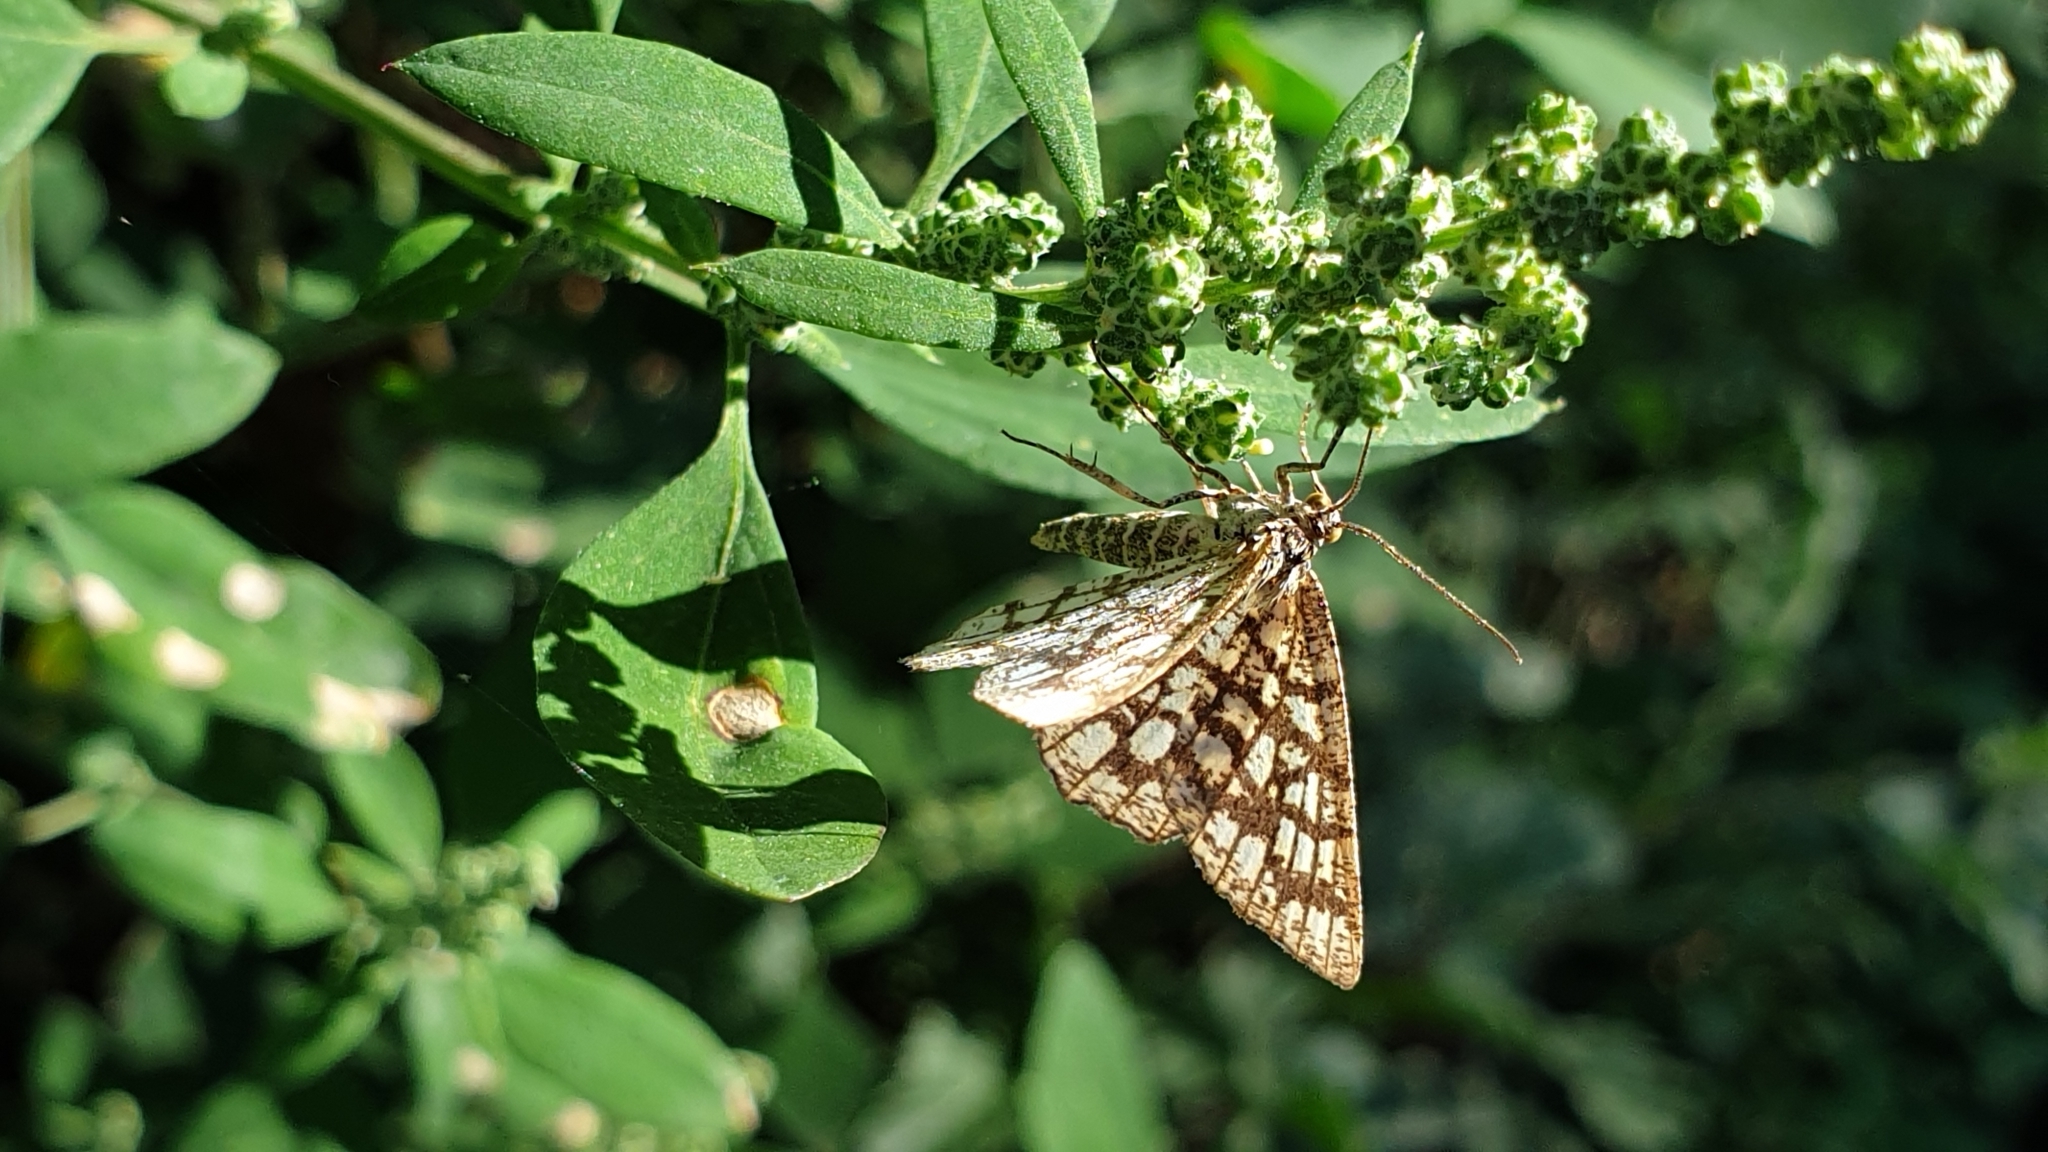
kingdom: Animalia
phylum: Arthropoda
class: Insecta
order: Lepidoptera
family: Geometridae
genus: Chiasmia
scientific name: Chiasmia clathrata
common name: Latticed heath
